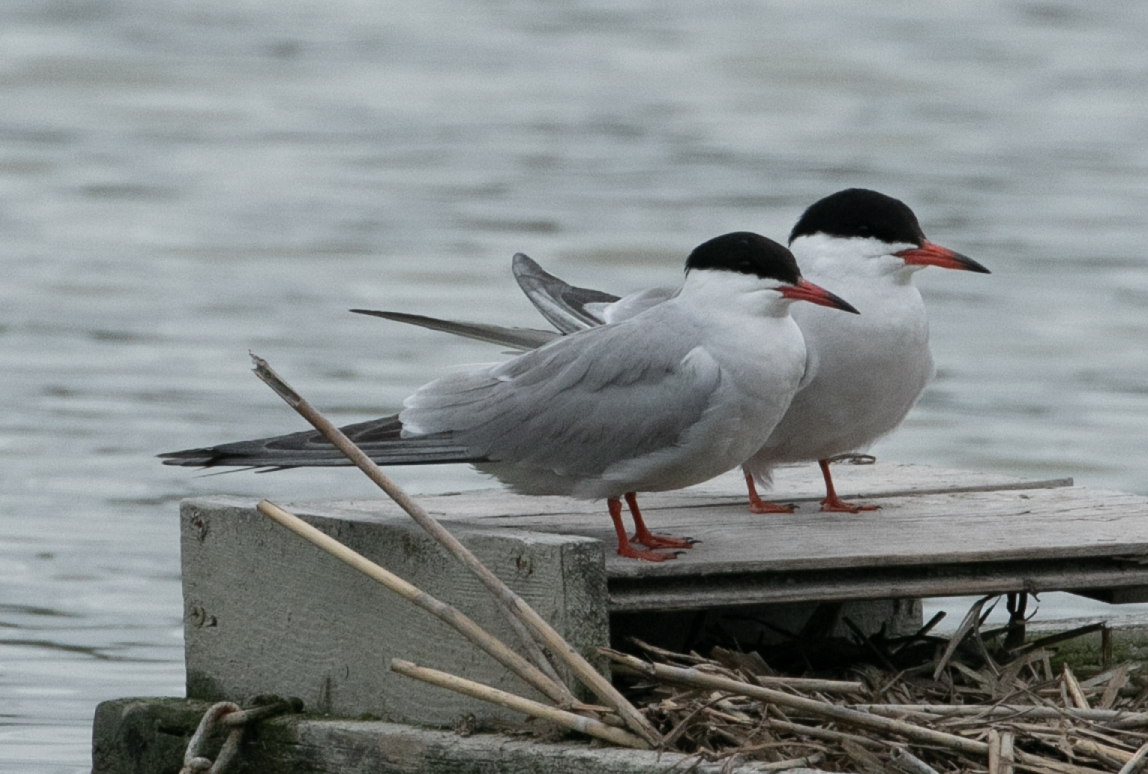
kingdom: Animalia
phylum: Chordata
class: Aves
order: Charadriiformes
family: Laridae
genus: Sterna
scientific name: Sterna hirundo
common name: Common tern
